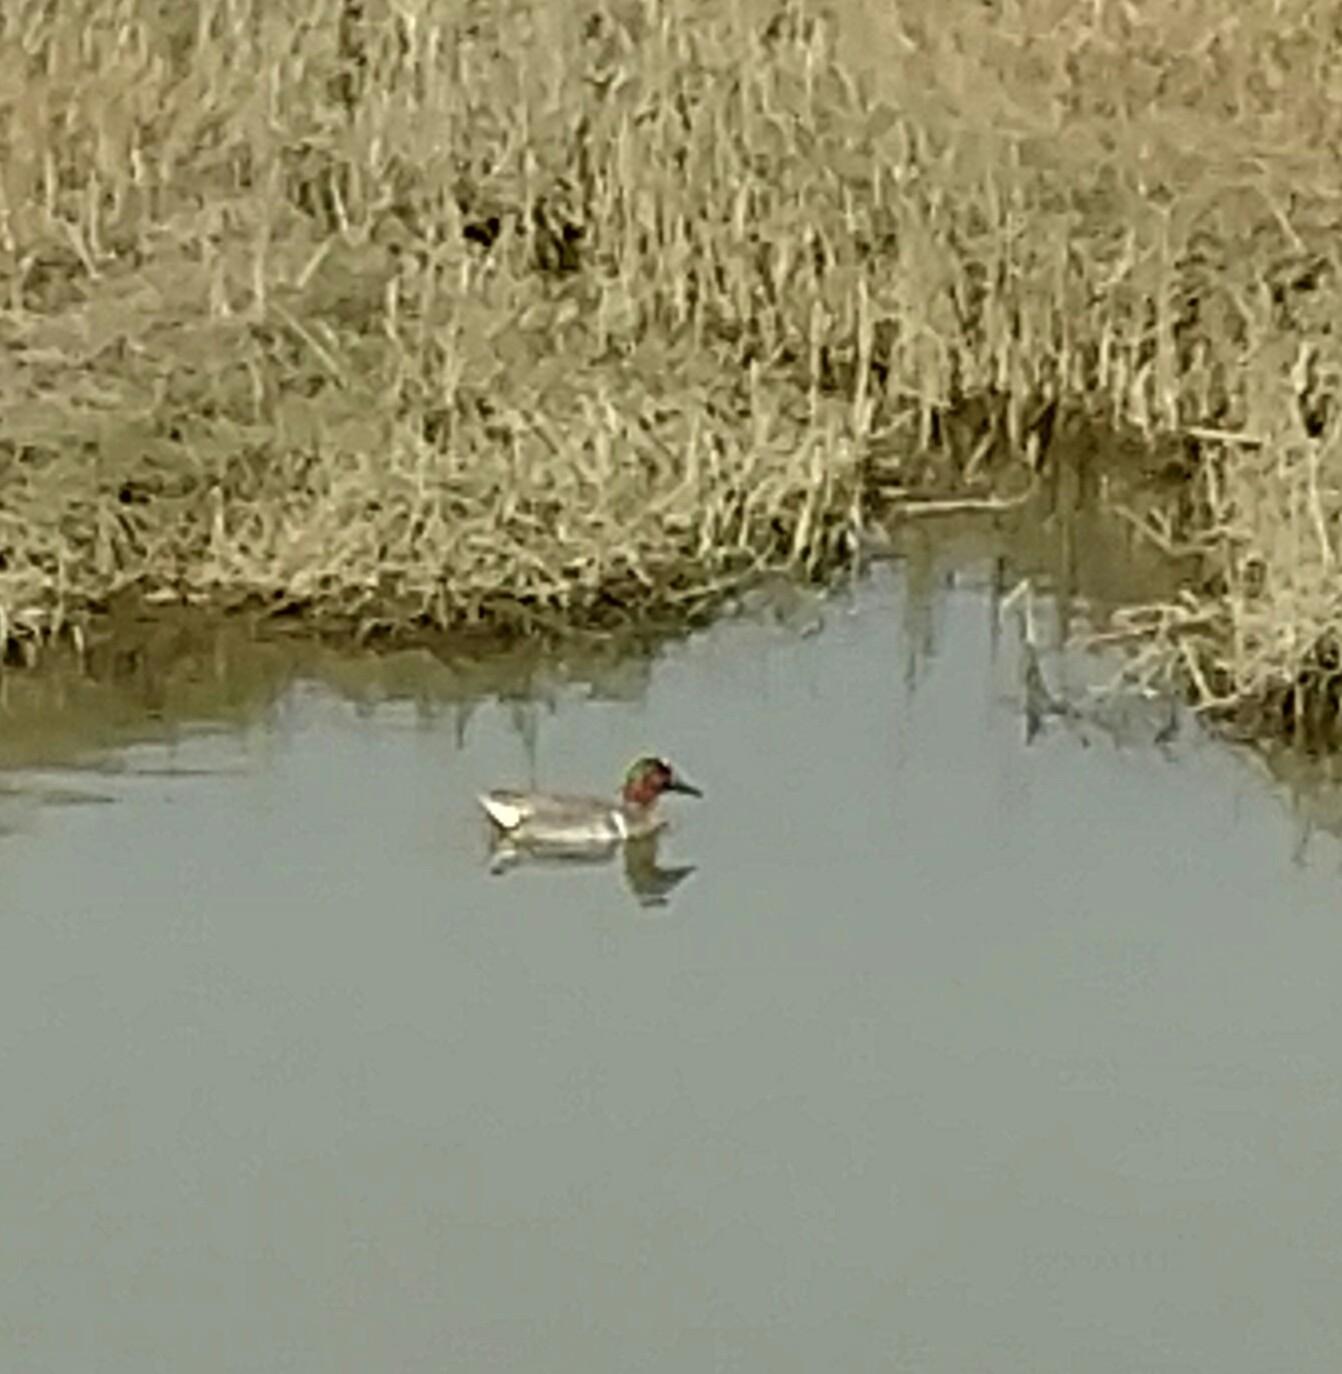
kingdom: Animalia
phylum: Chordata
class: Aves
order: Anseriformes
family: Anatidae
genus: Anas
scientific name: Anas carolinensis
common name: Green-winged teal
